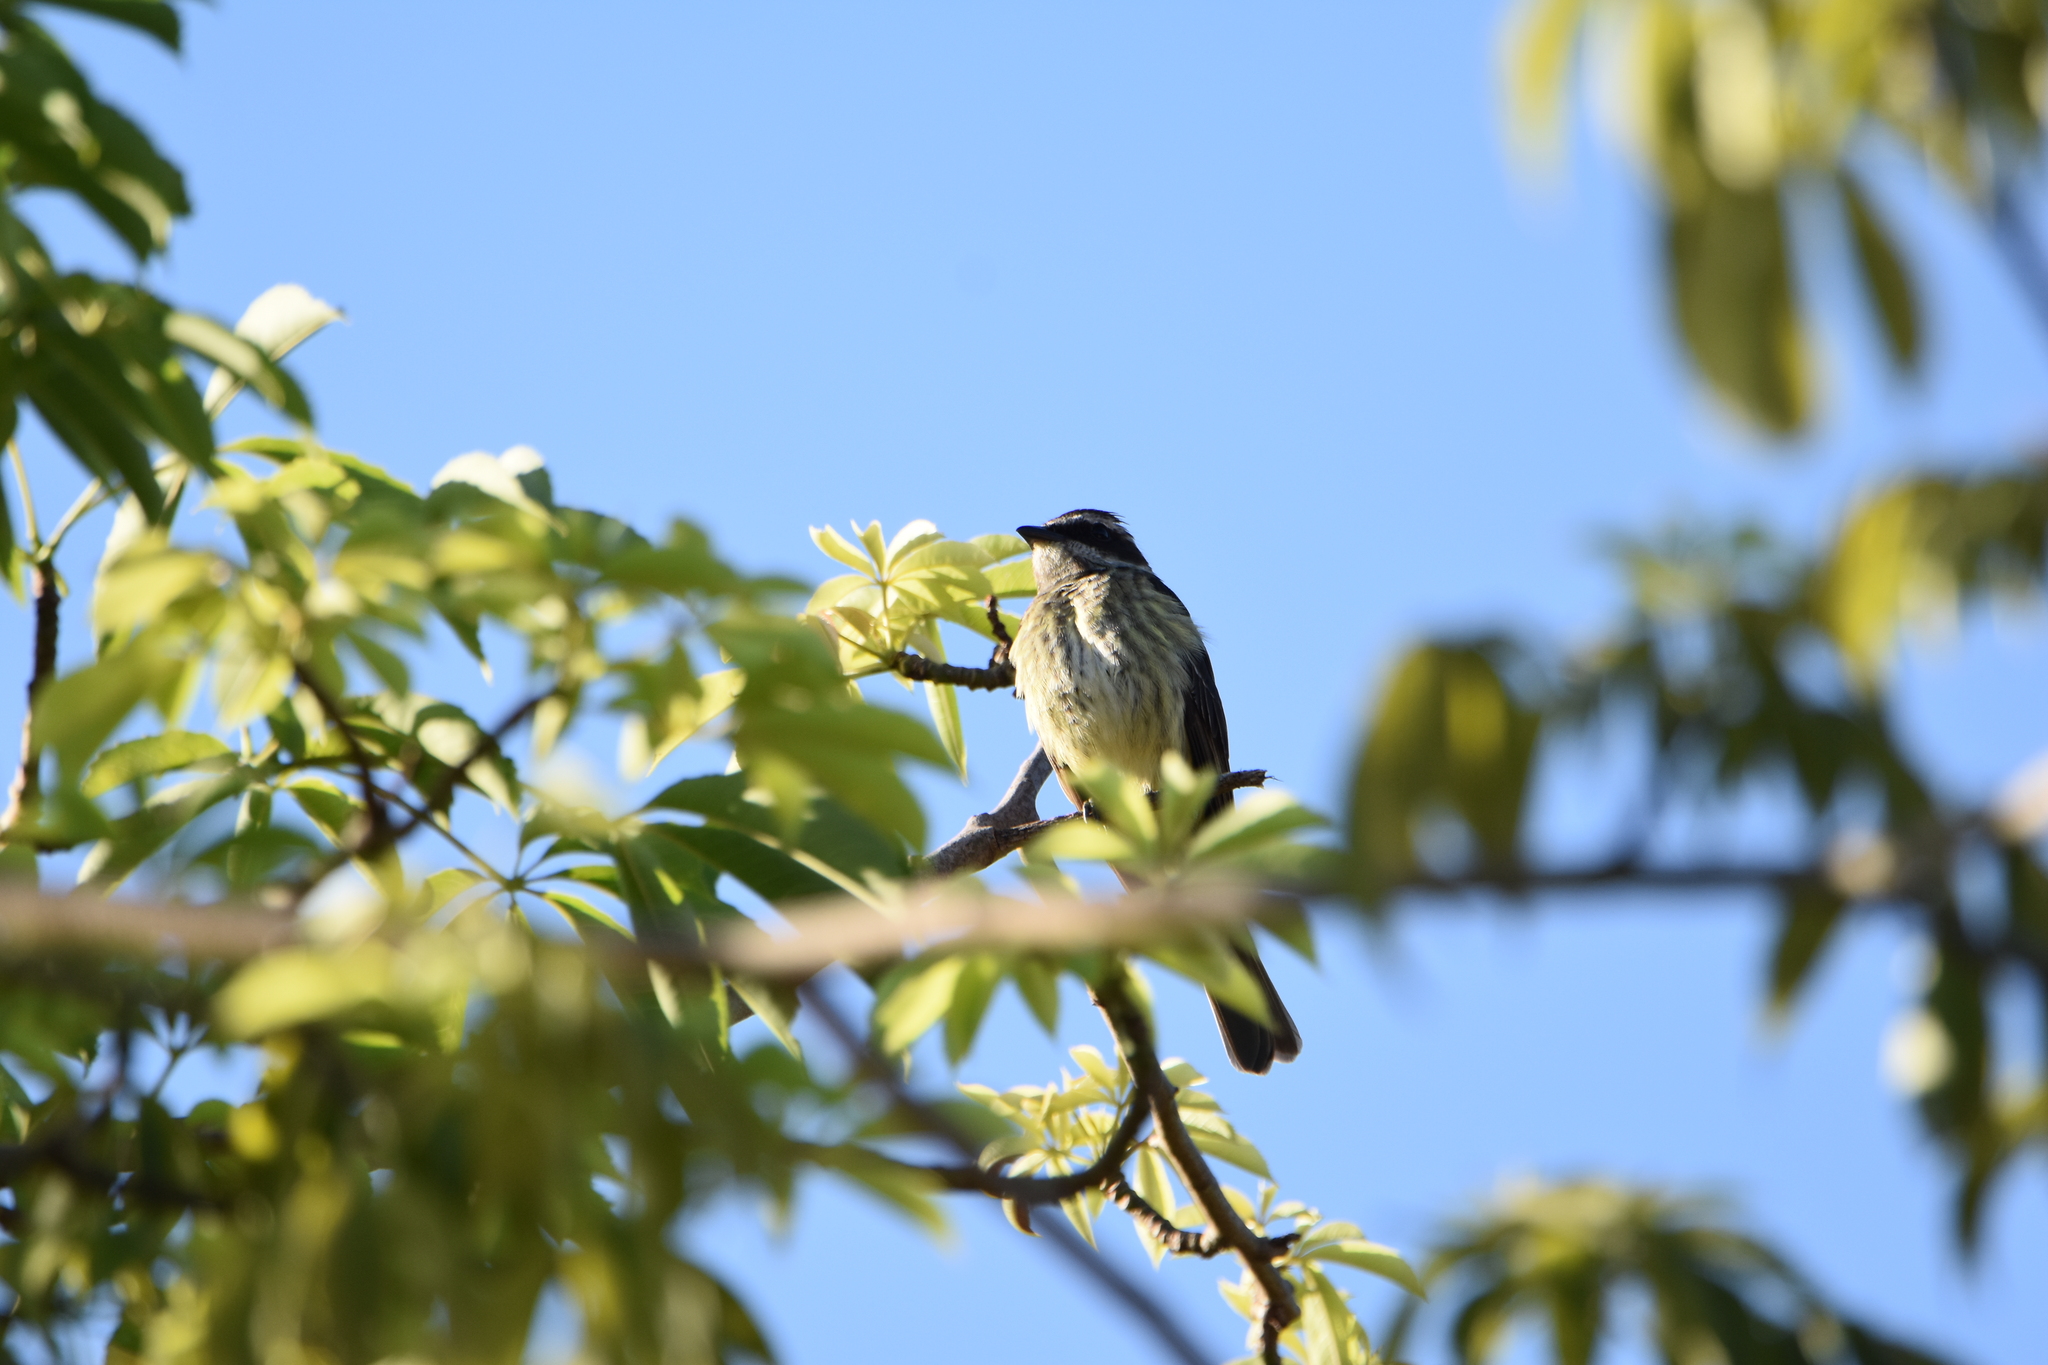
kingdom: Animalia
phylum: Chordata
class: Aves
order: Passeriformes
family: Tyrannidae
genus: Legatus
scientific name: Legatus leucophaius
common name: Piratic flycatcher
